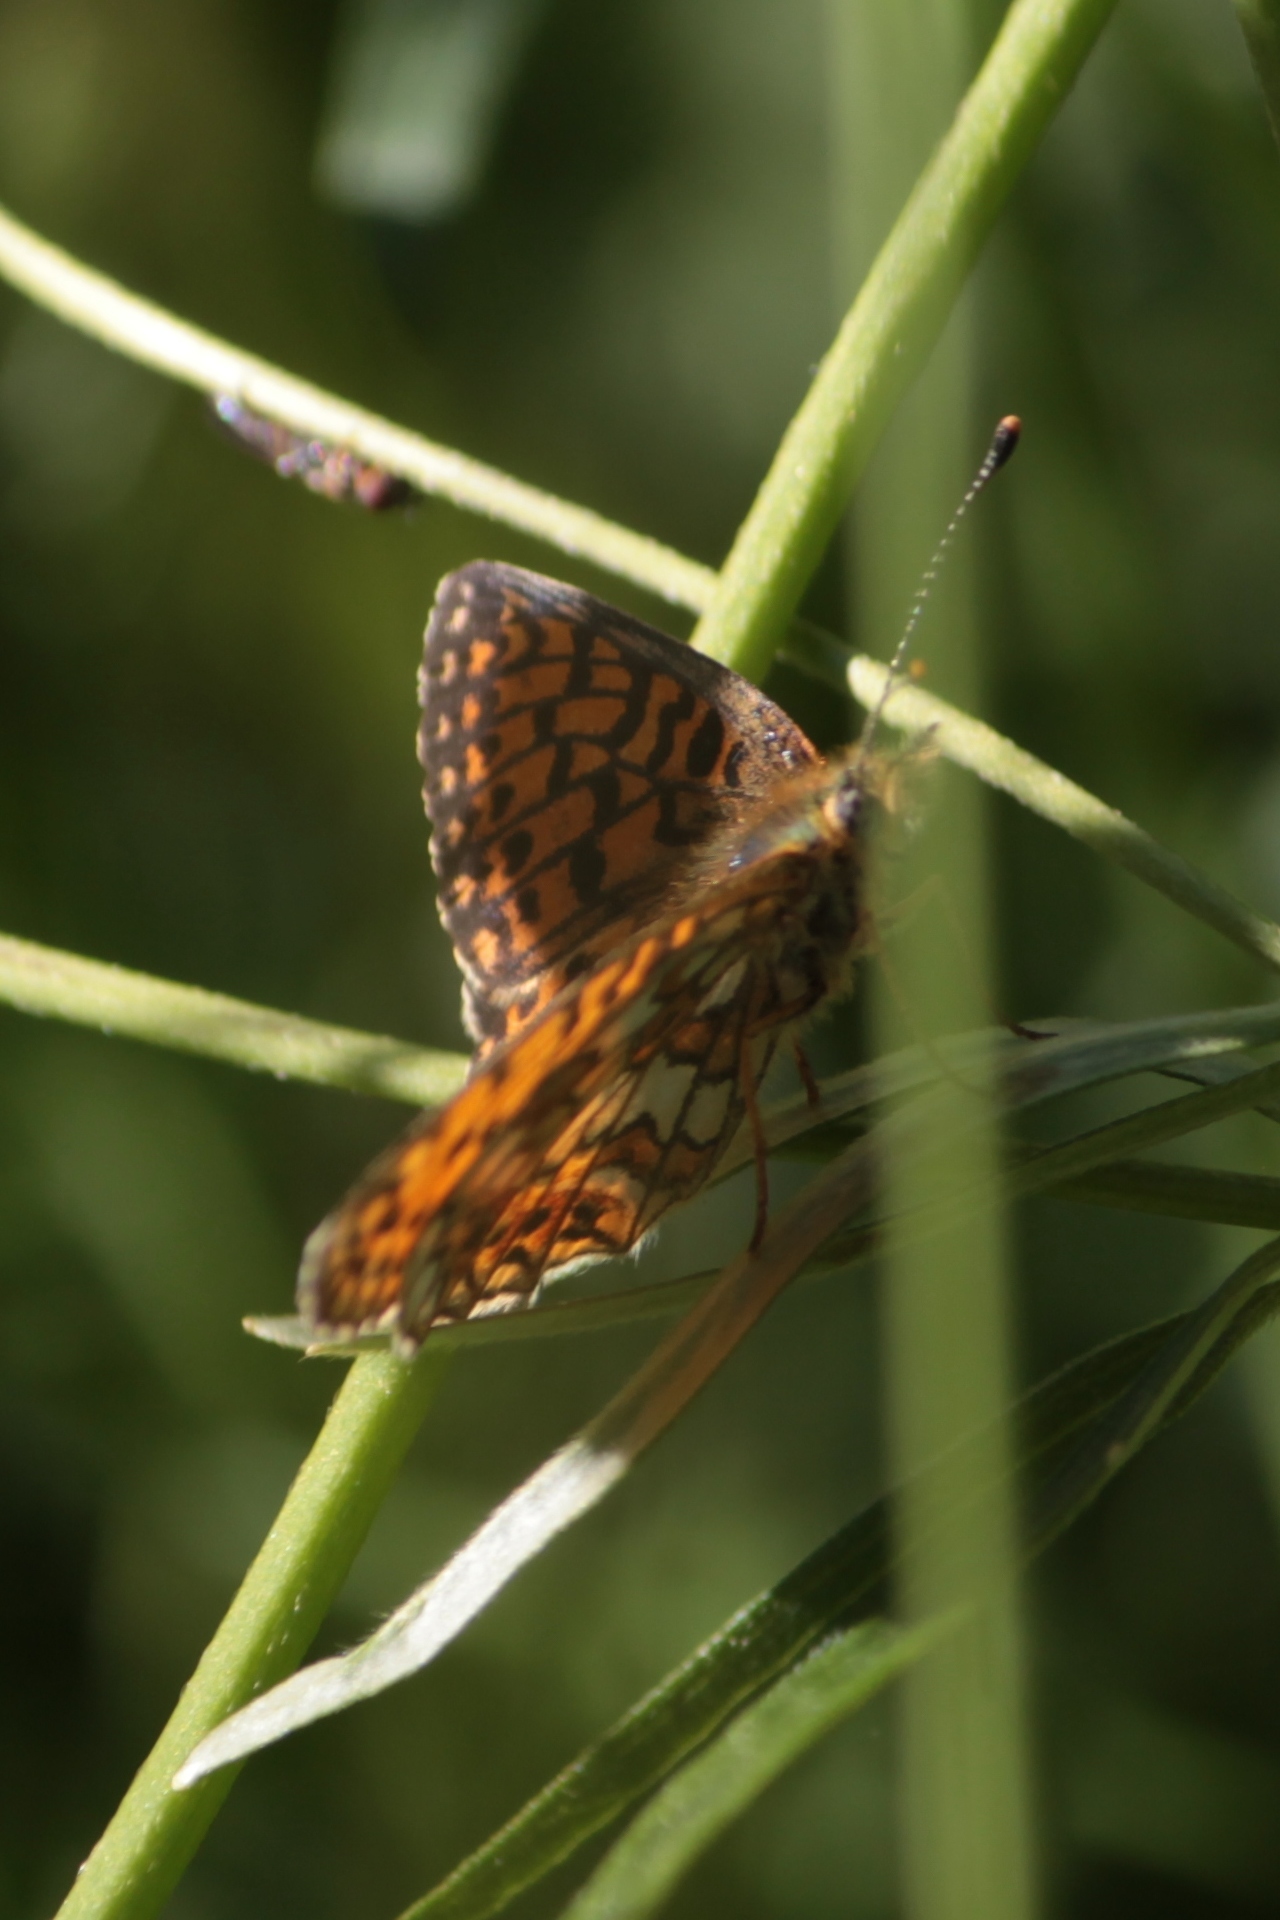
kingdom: Animalia
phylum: Arthropoda
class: Insecta
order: Lepidoptera
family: Nymphalidae
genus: Boloria
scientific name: Boloria selene
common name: Small pearl-bordered fritillary
